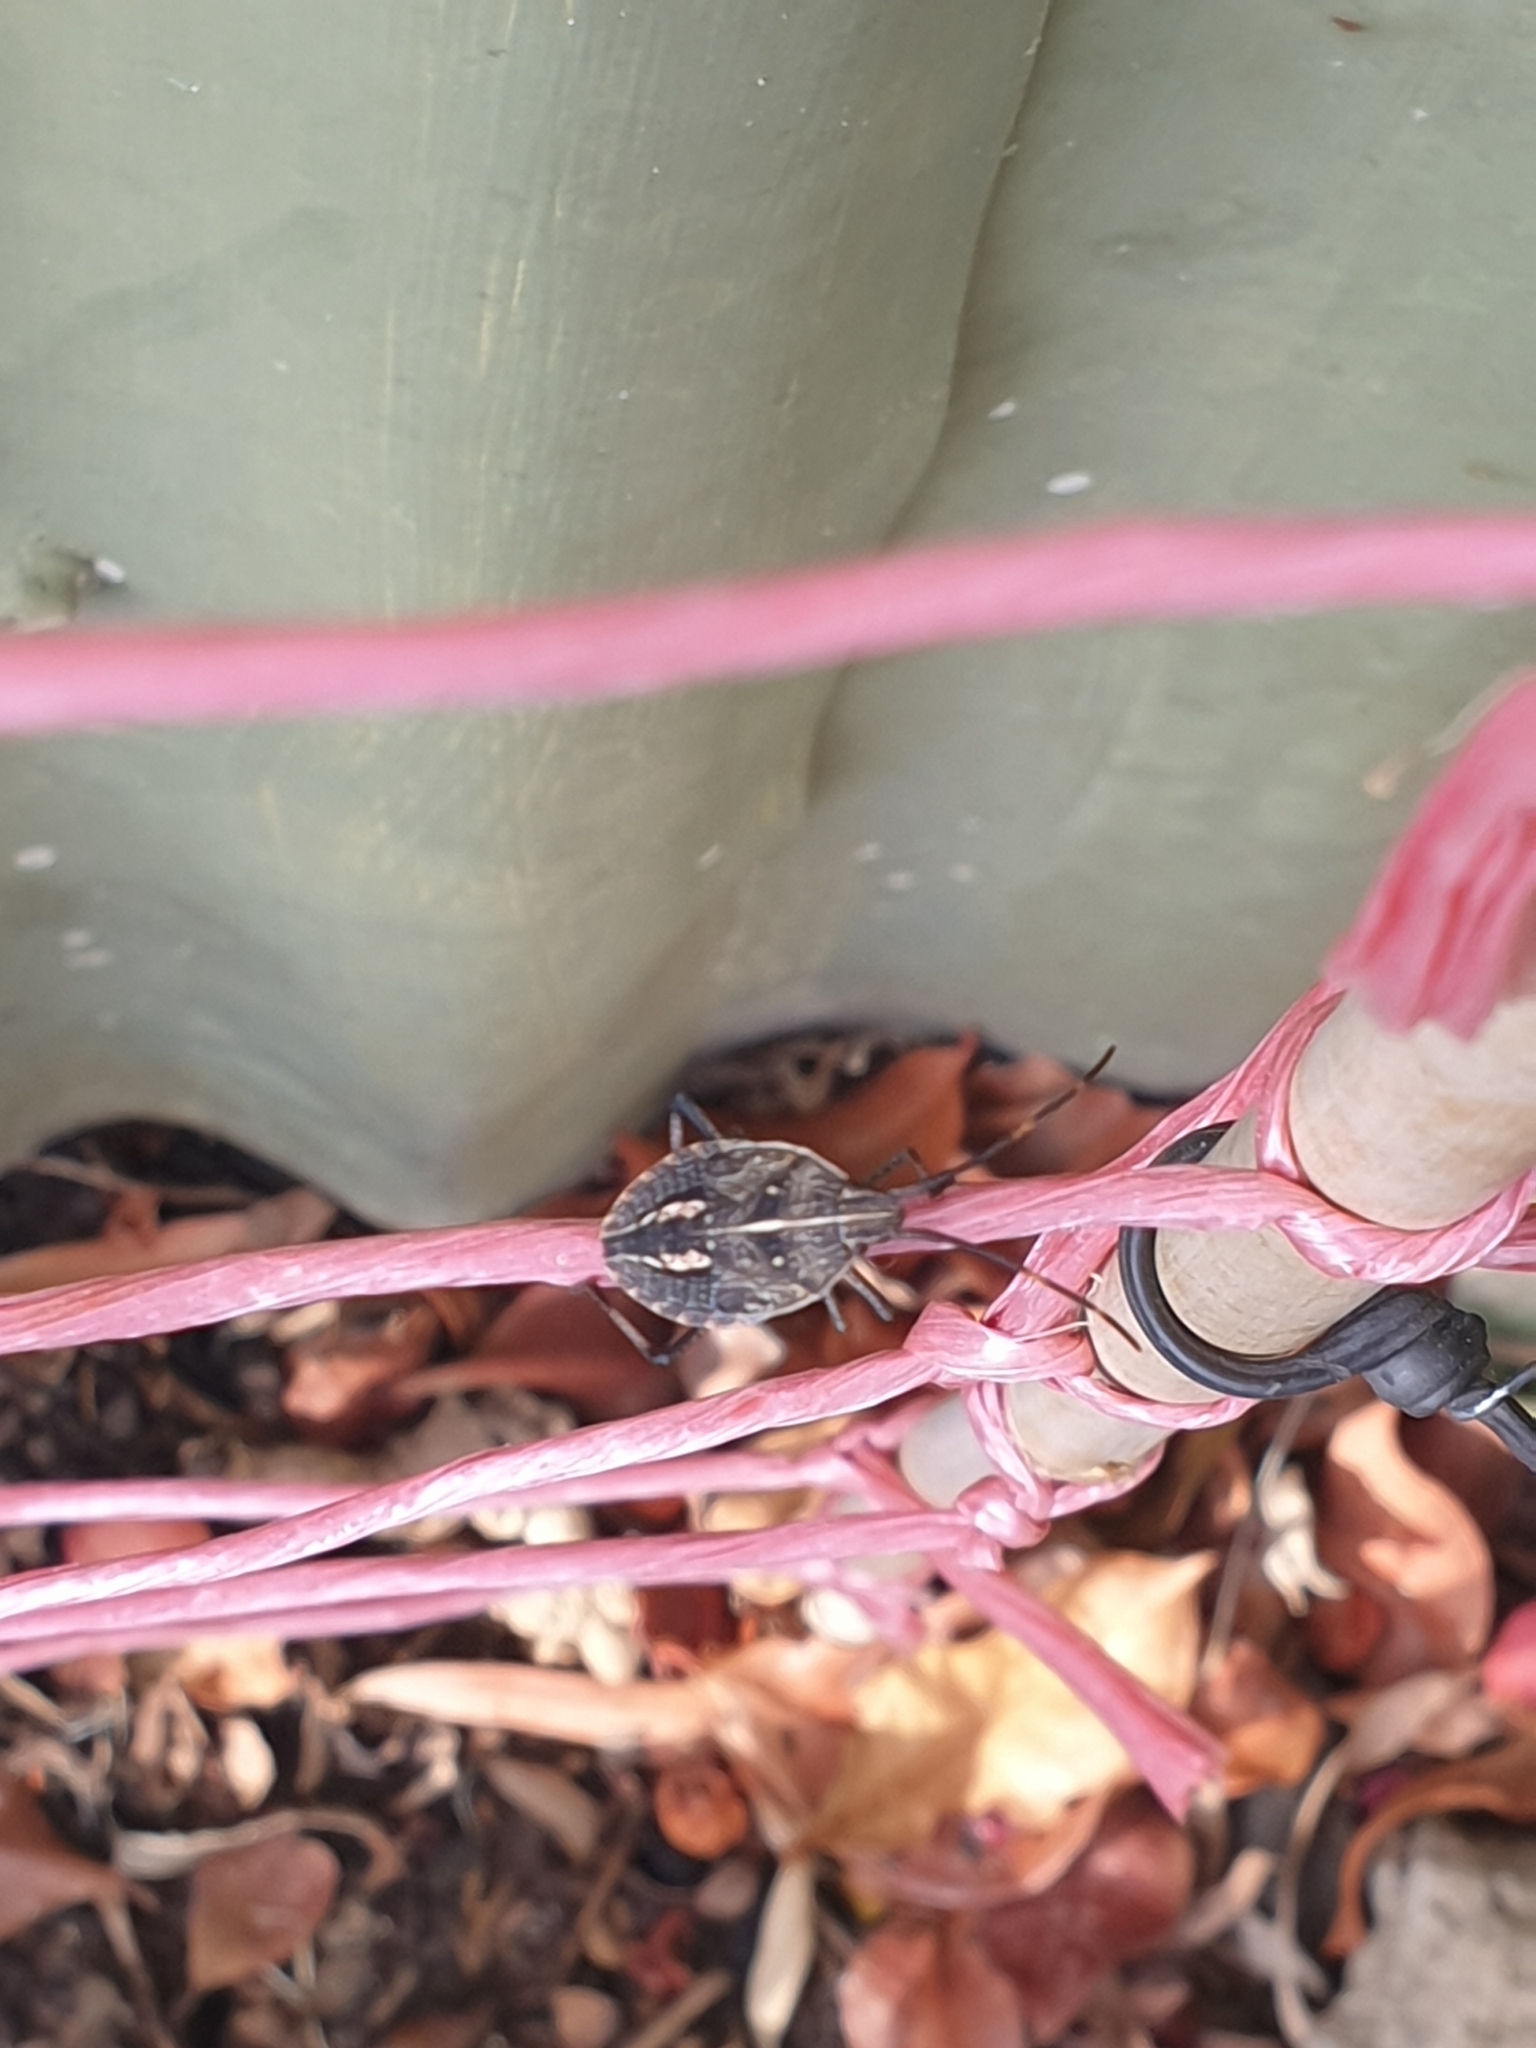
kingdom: Animalia
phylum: Arthropoda
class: Insecta
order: Hemiptera
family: Pentatomidae
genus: Poecilometis
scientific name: Poecilometis
